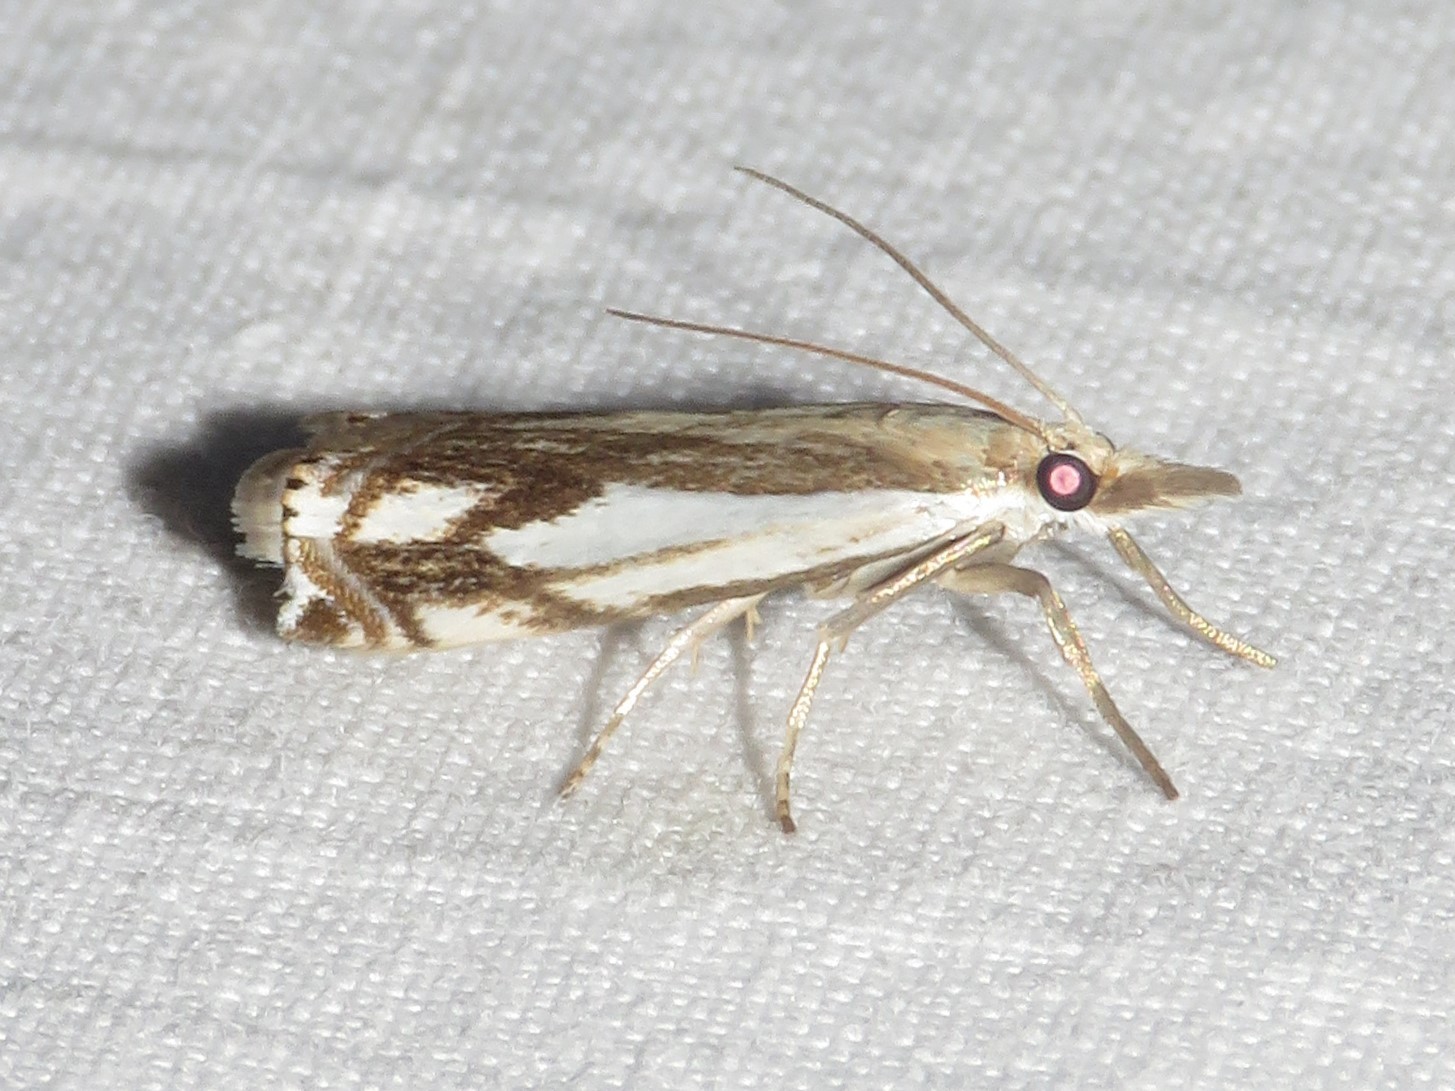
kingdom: Animalia
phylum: Arthropoda
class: Insecta
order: Lepidoptera
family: Crambidae
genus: Crambus
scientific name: Crambus agitatellus
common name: Double-banded grass-veneer
